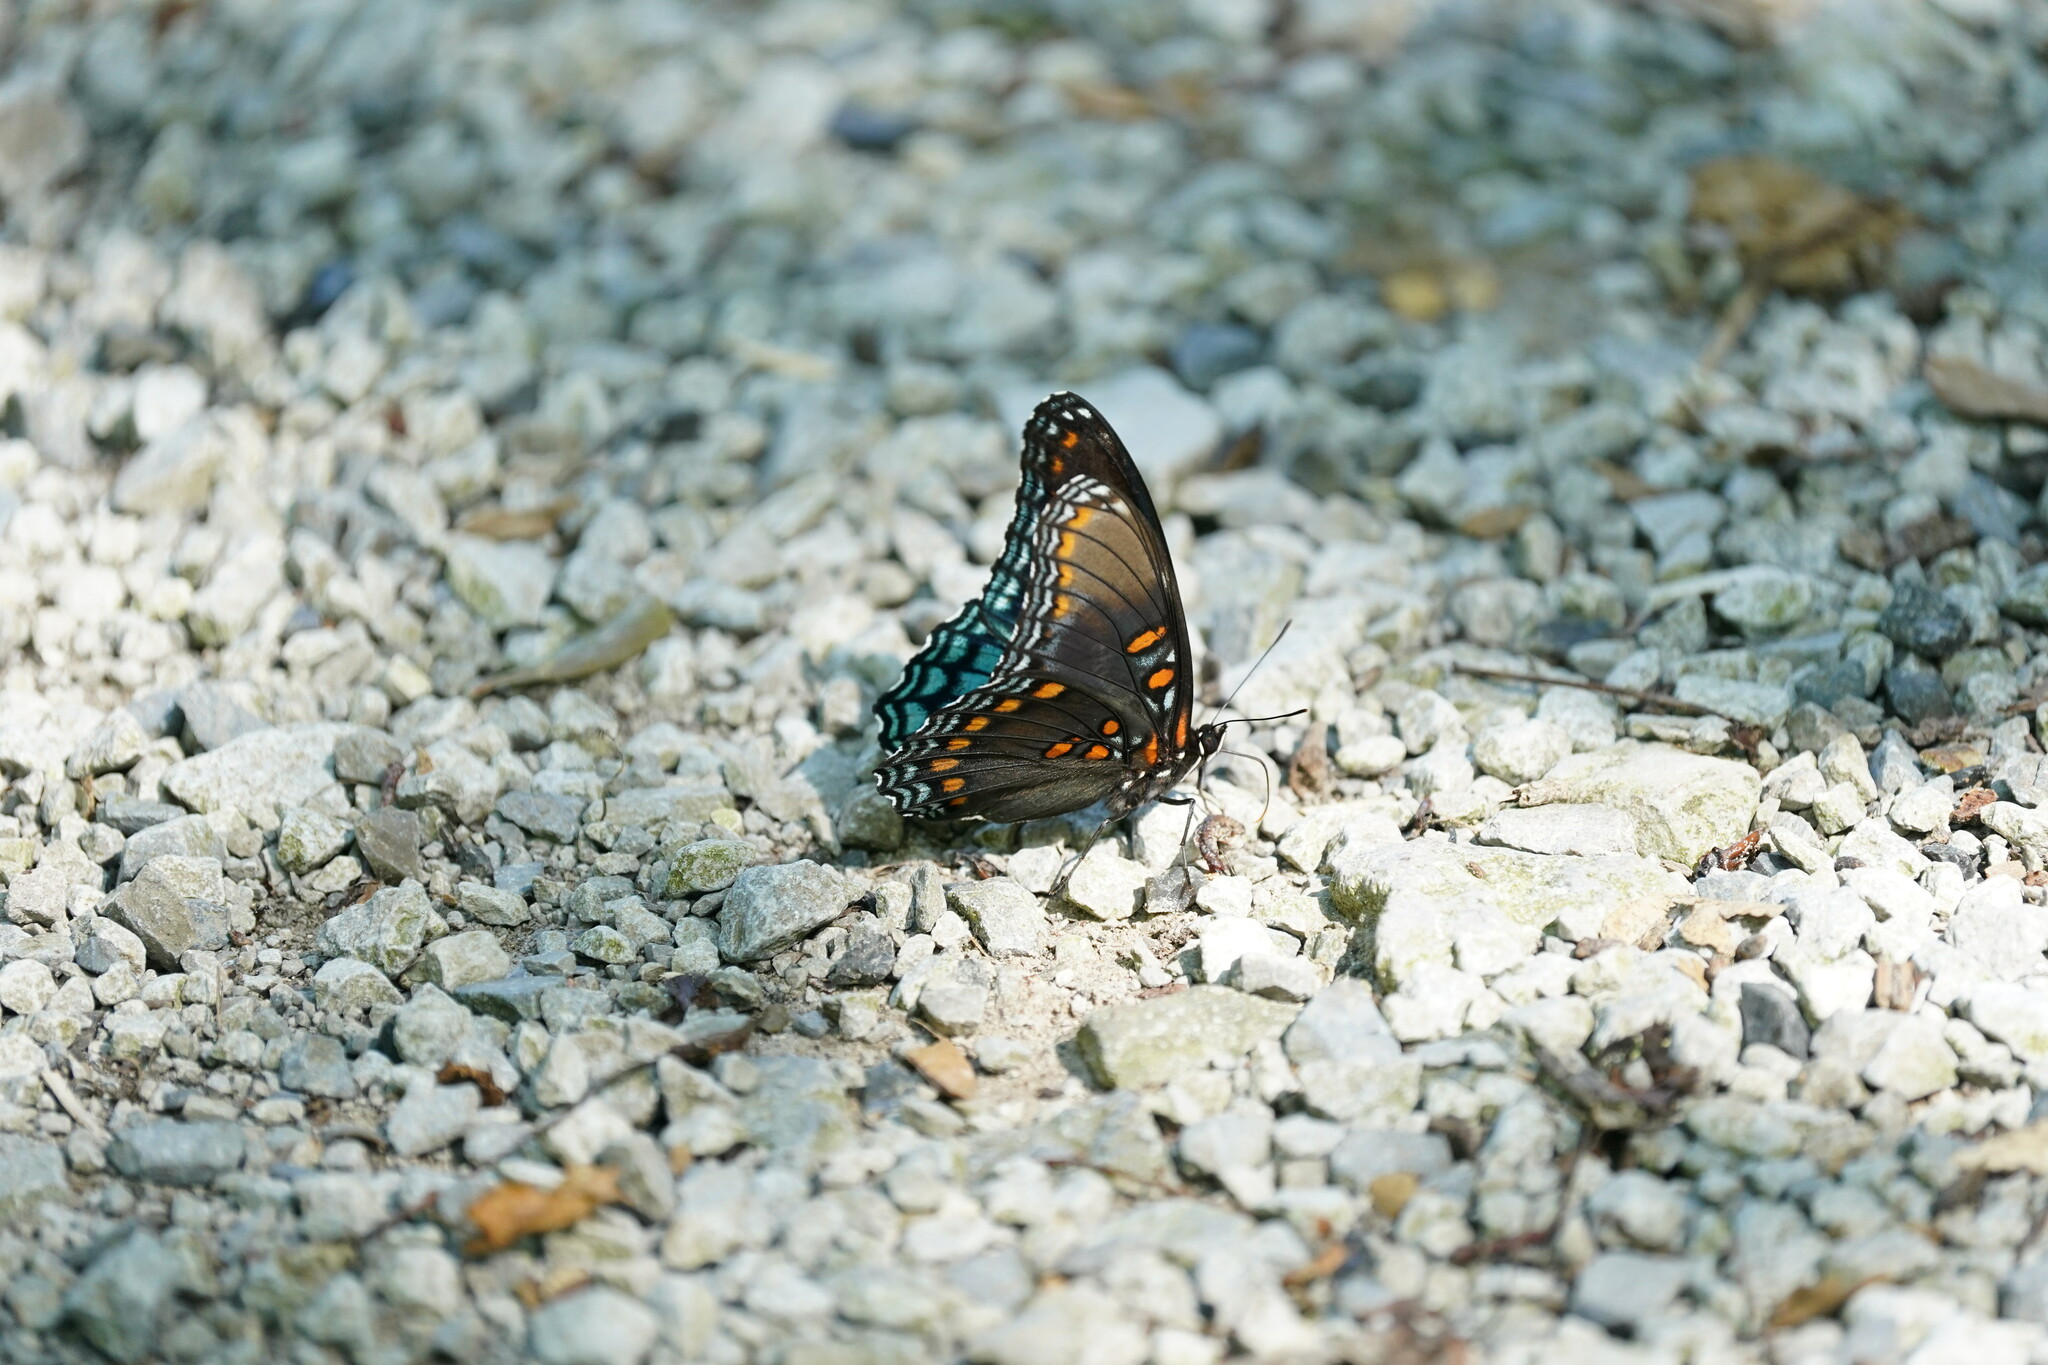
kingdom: Animalia
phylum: Arthropoda
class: Insecta
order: Lepidoptera
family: Nymphalidae
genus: Limenitis
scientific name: Limenitis astyanax
